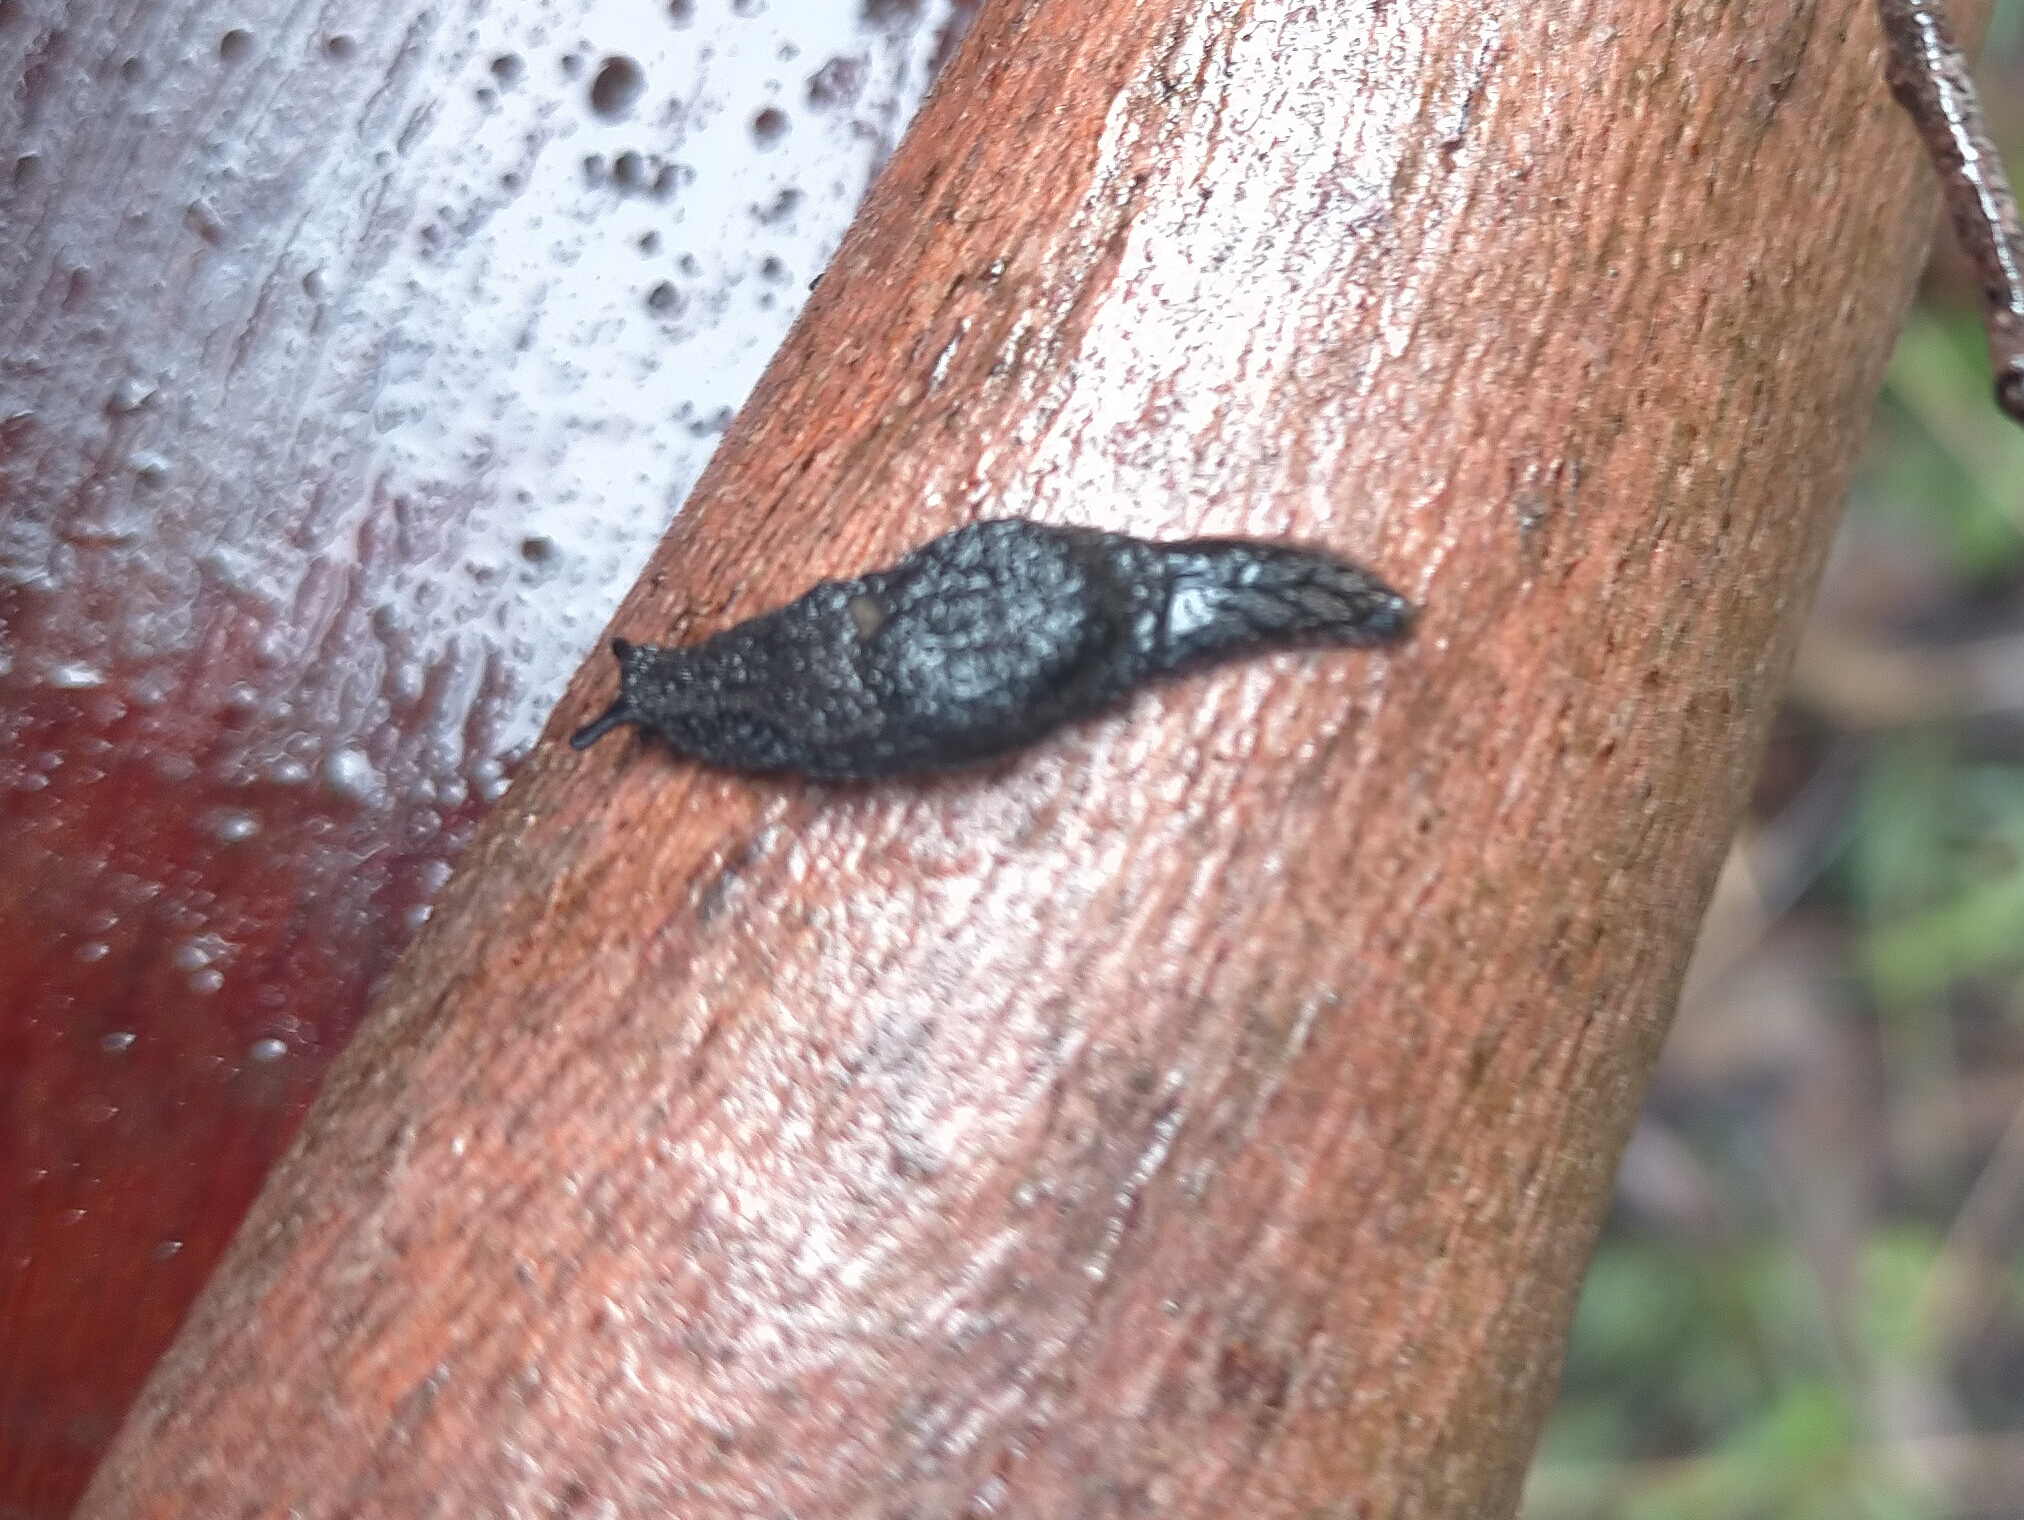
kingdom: Animalia
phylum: Mollusca
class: Gastropoda
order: Stylommatophora
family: Cystopeltidae
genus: Cystopelta
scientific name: Cystopelta purpurea
